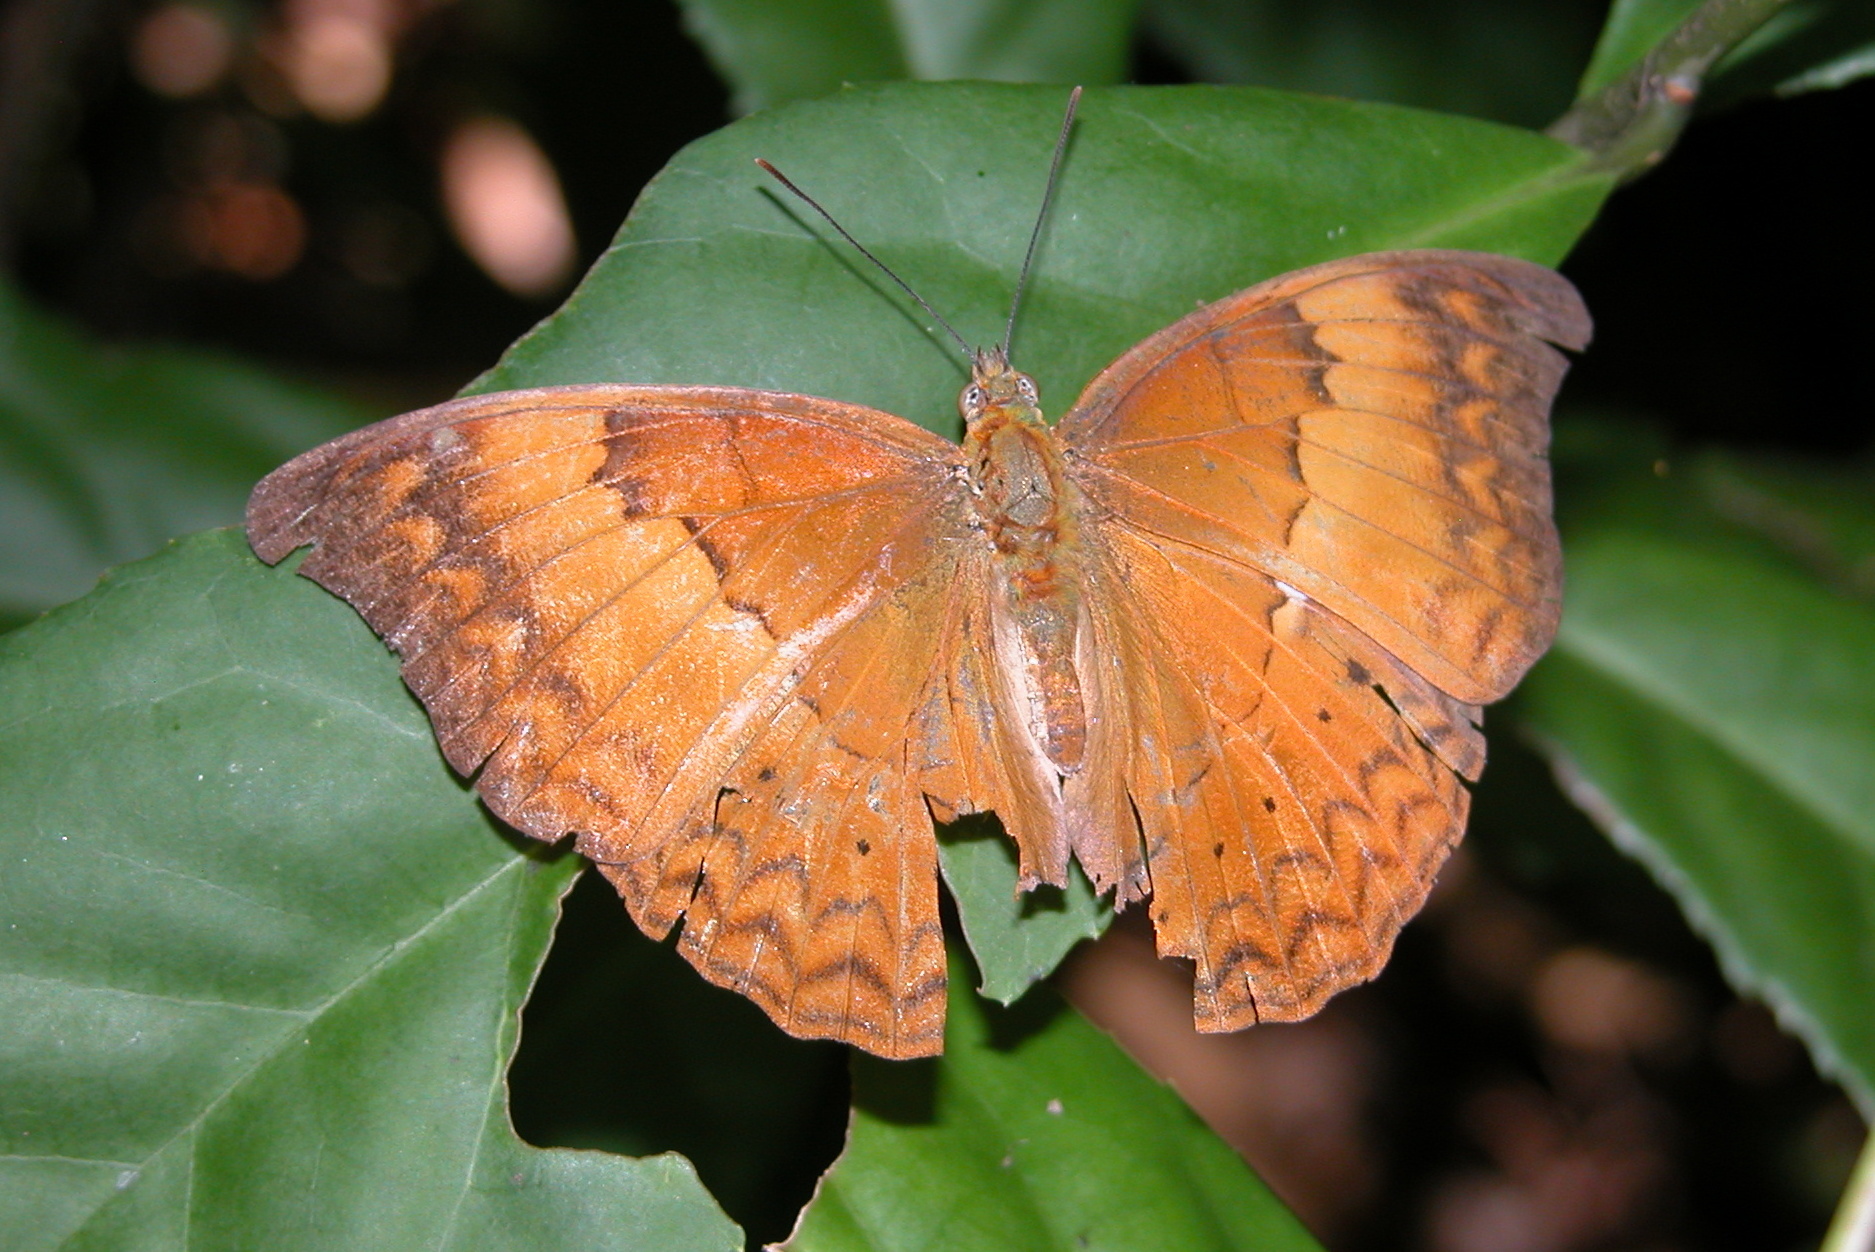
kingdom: Animalia
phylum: Arthropoda
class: Insecta
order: Lepidoptera
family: Nymphalidae
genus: Cirrochroa
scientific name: Cirrochroa thais
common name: Tamil yeoman
